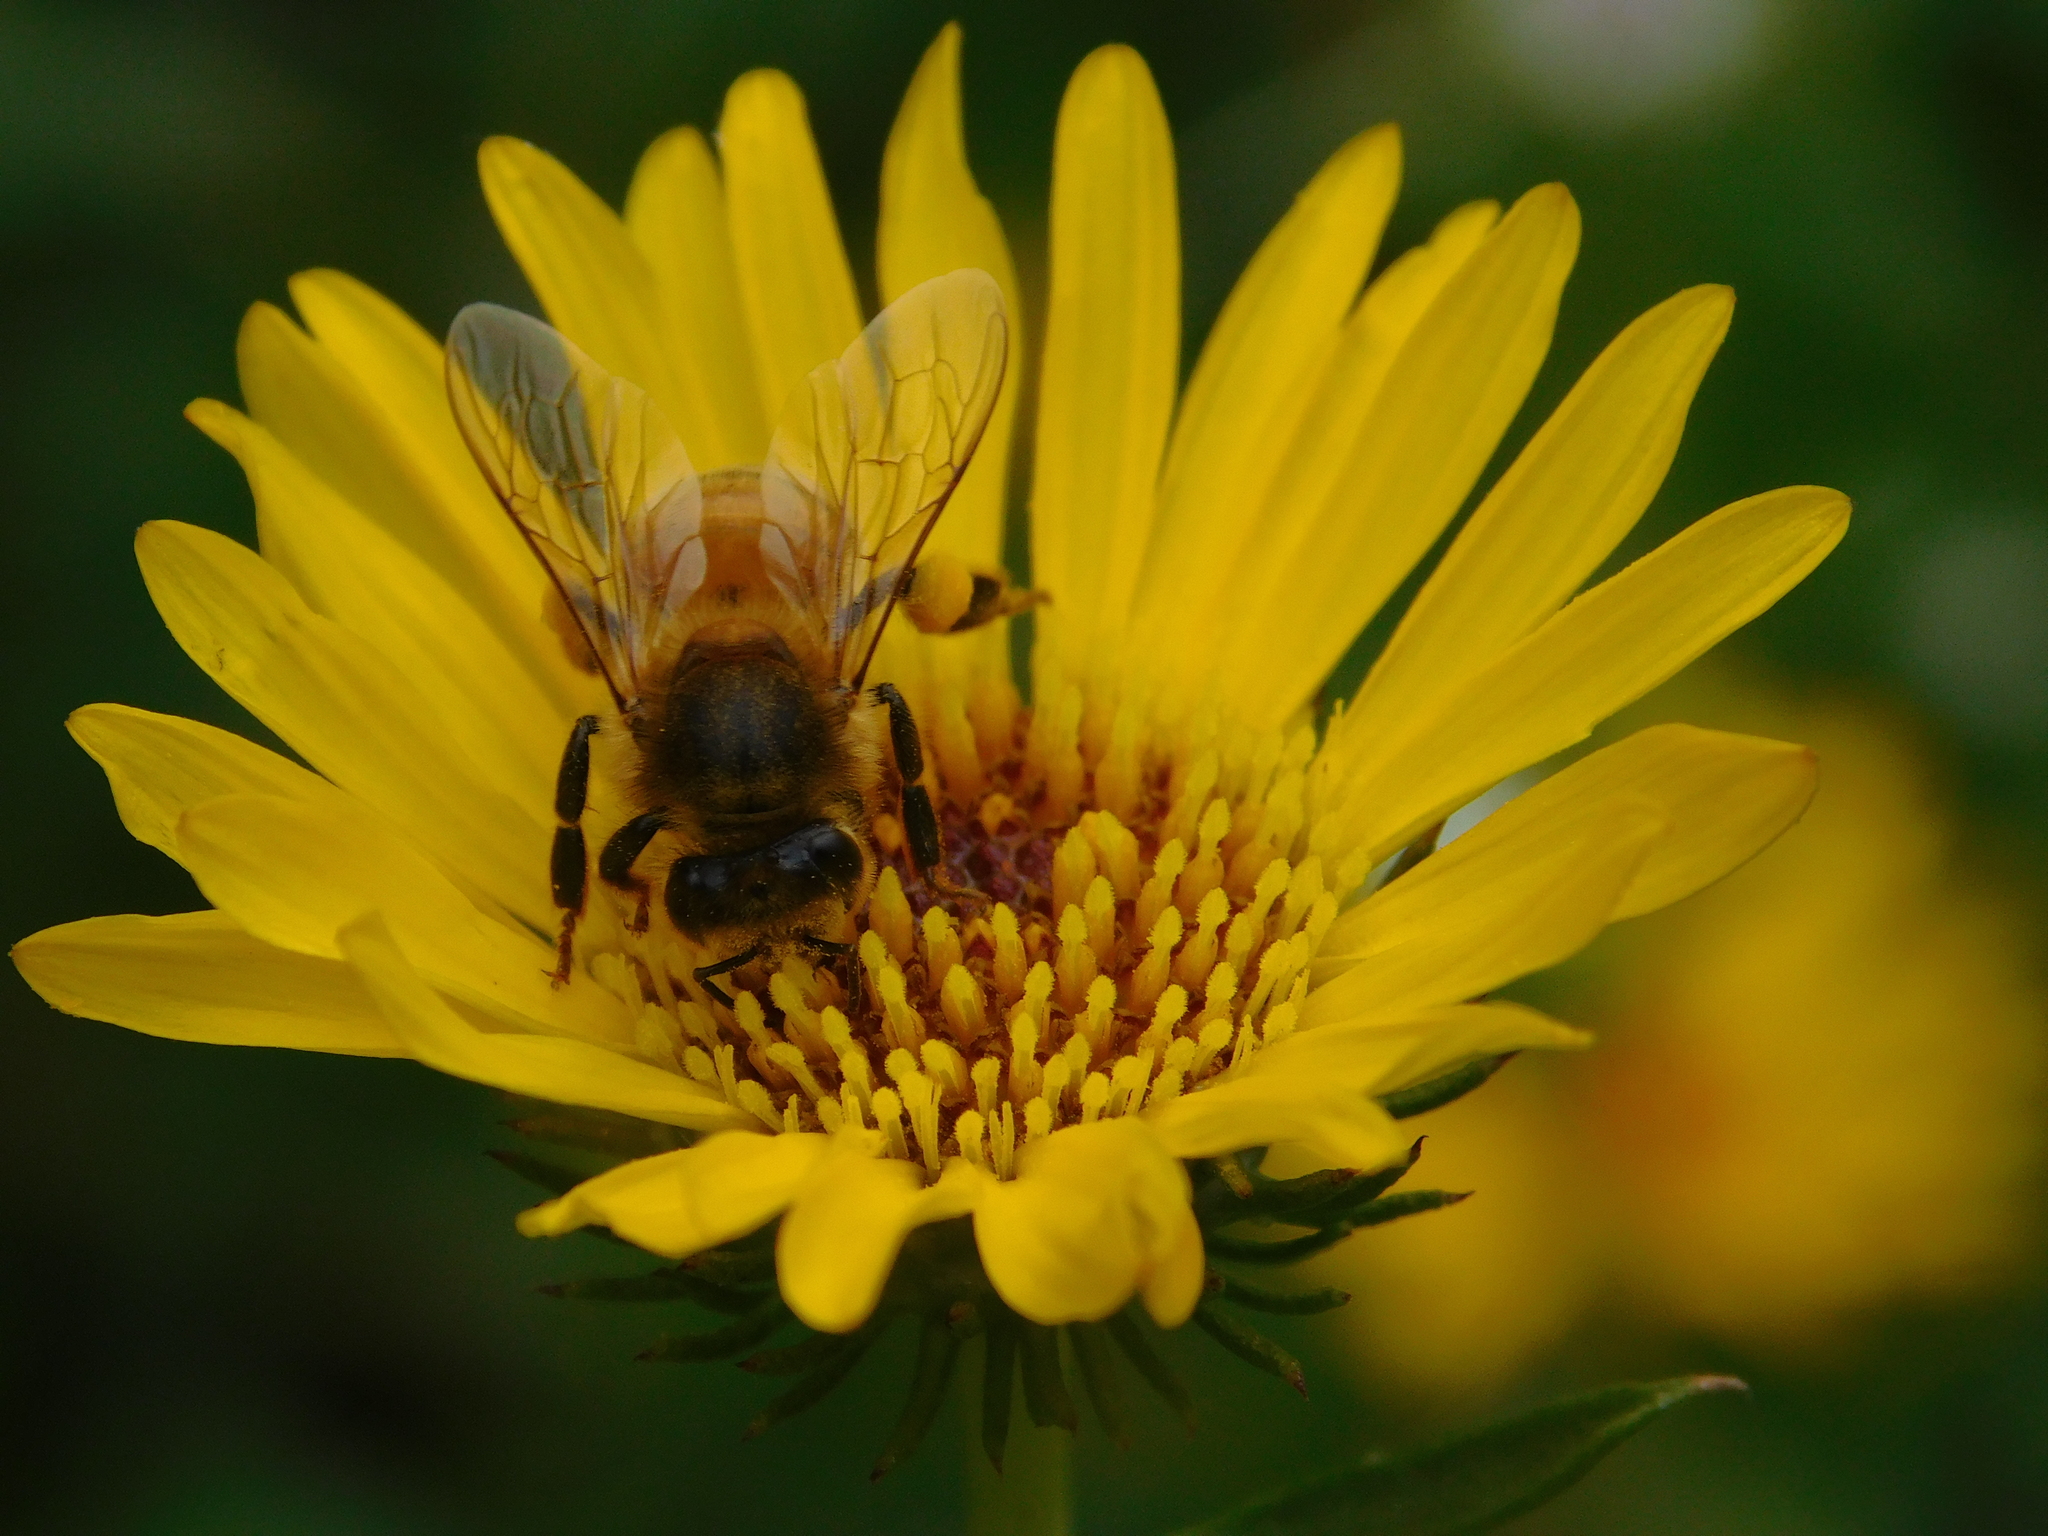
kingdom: Animalia
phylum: Arthropoda
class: Insecta
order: Hymenoptera
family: Apidae
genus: Apis
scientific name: Apis mellifera
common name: Honey bee
